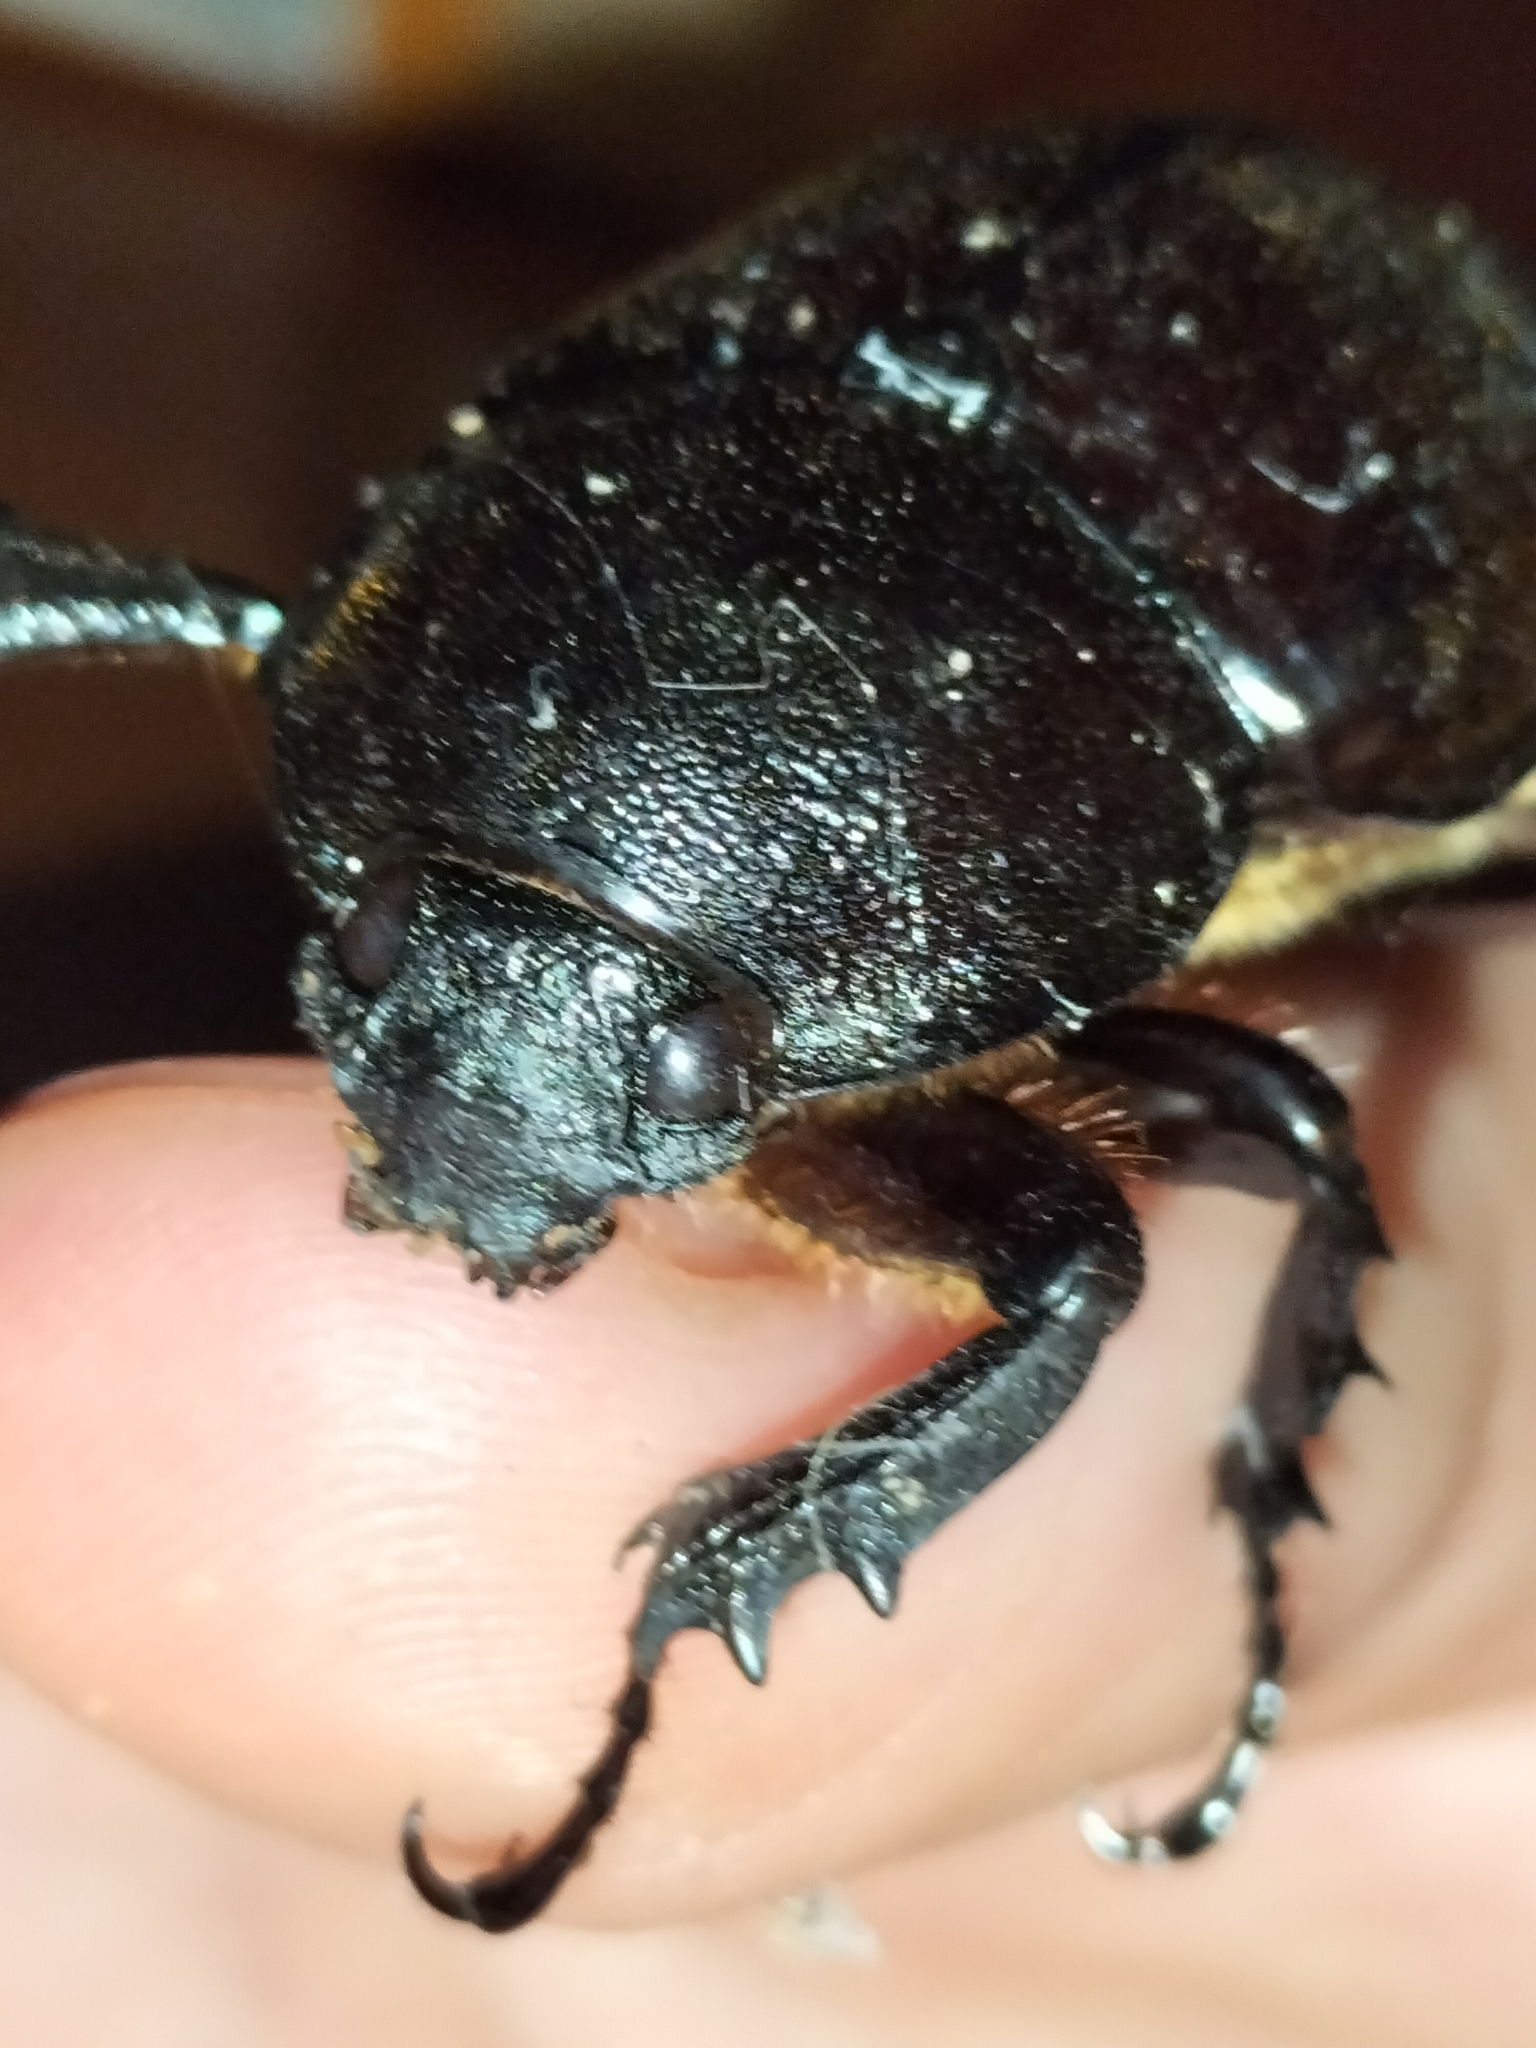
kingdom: Animalia
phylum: Arthropoda
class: Insecta
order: Coleoptera
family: Scarabaeidae
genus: Xylotrupes
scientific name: Xylotrupes australicus
